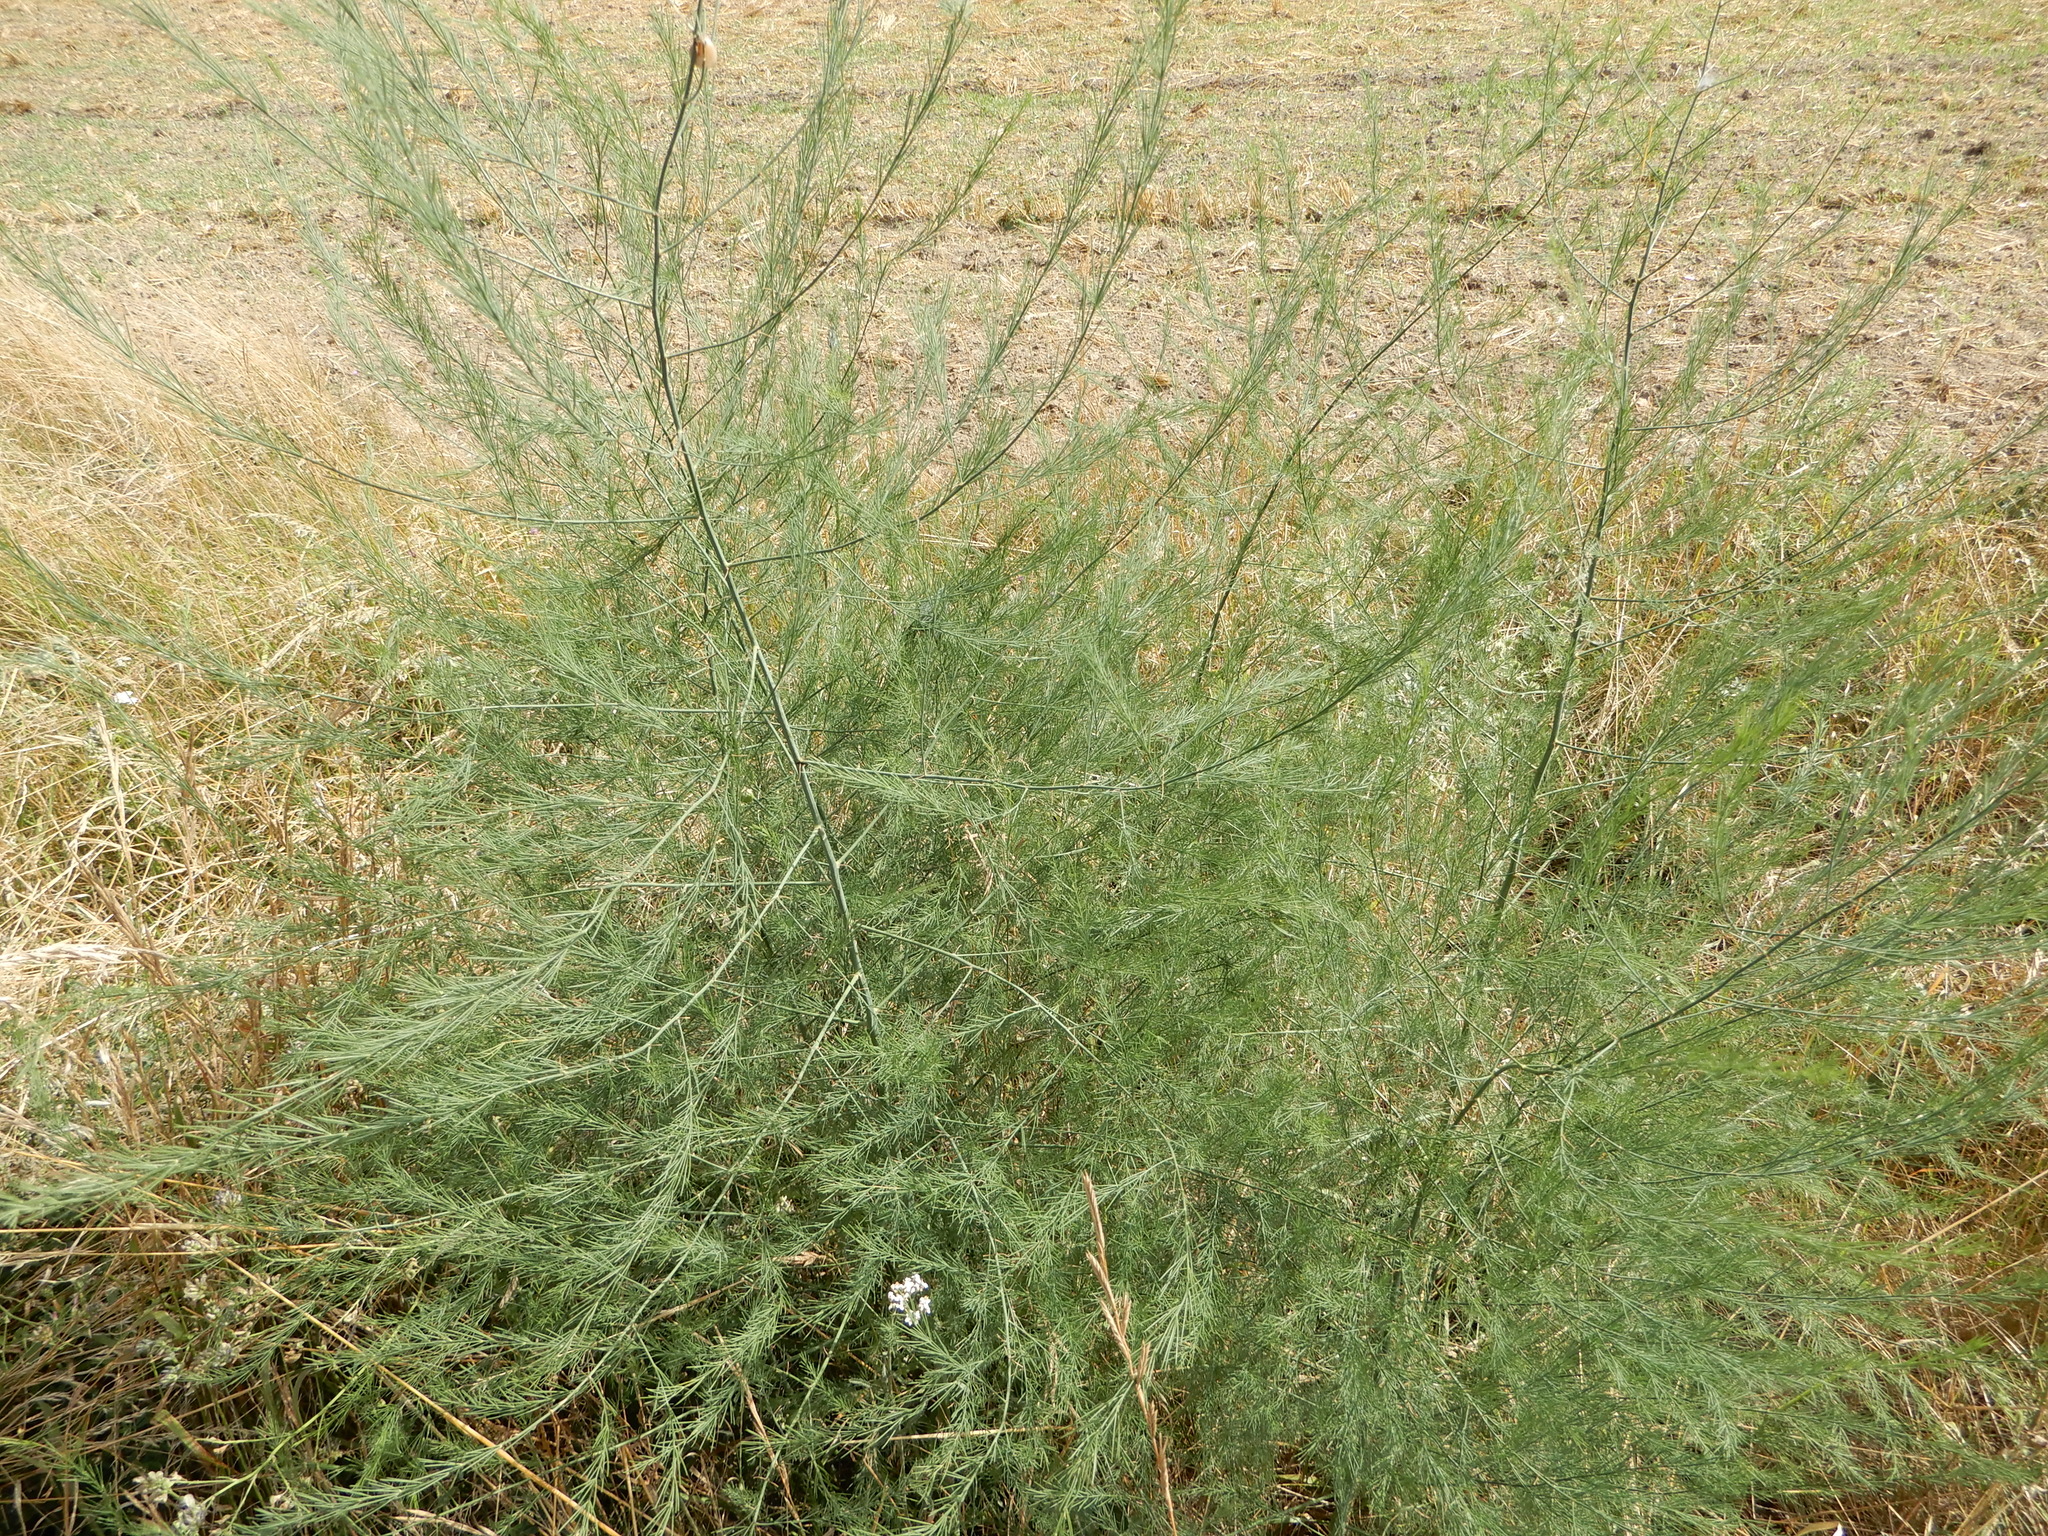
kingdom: Plantae
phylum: Tracheophyta
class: Liliopsida
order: Asparagales
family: Asparagaceae
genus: Asparagus
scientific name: Asparagus officinalis
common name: Garden asparagus
